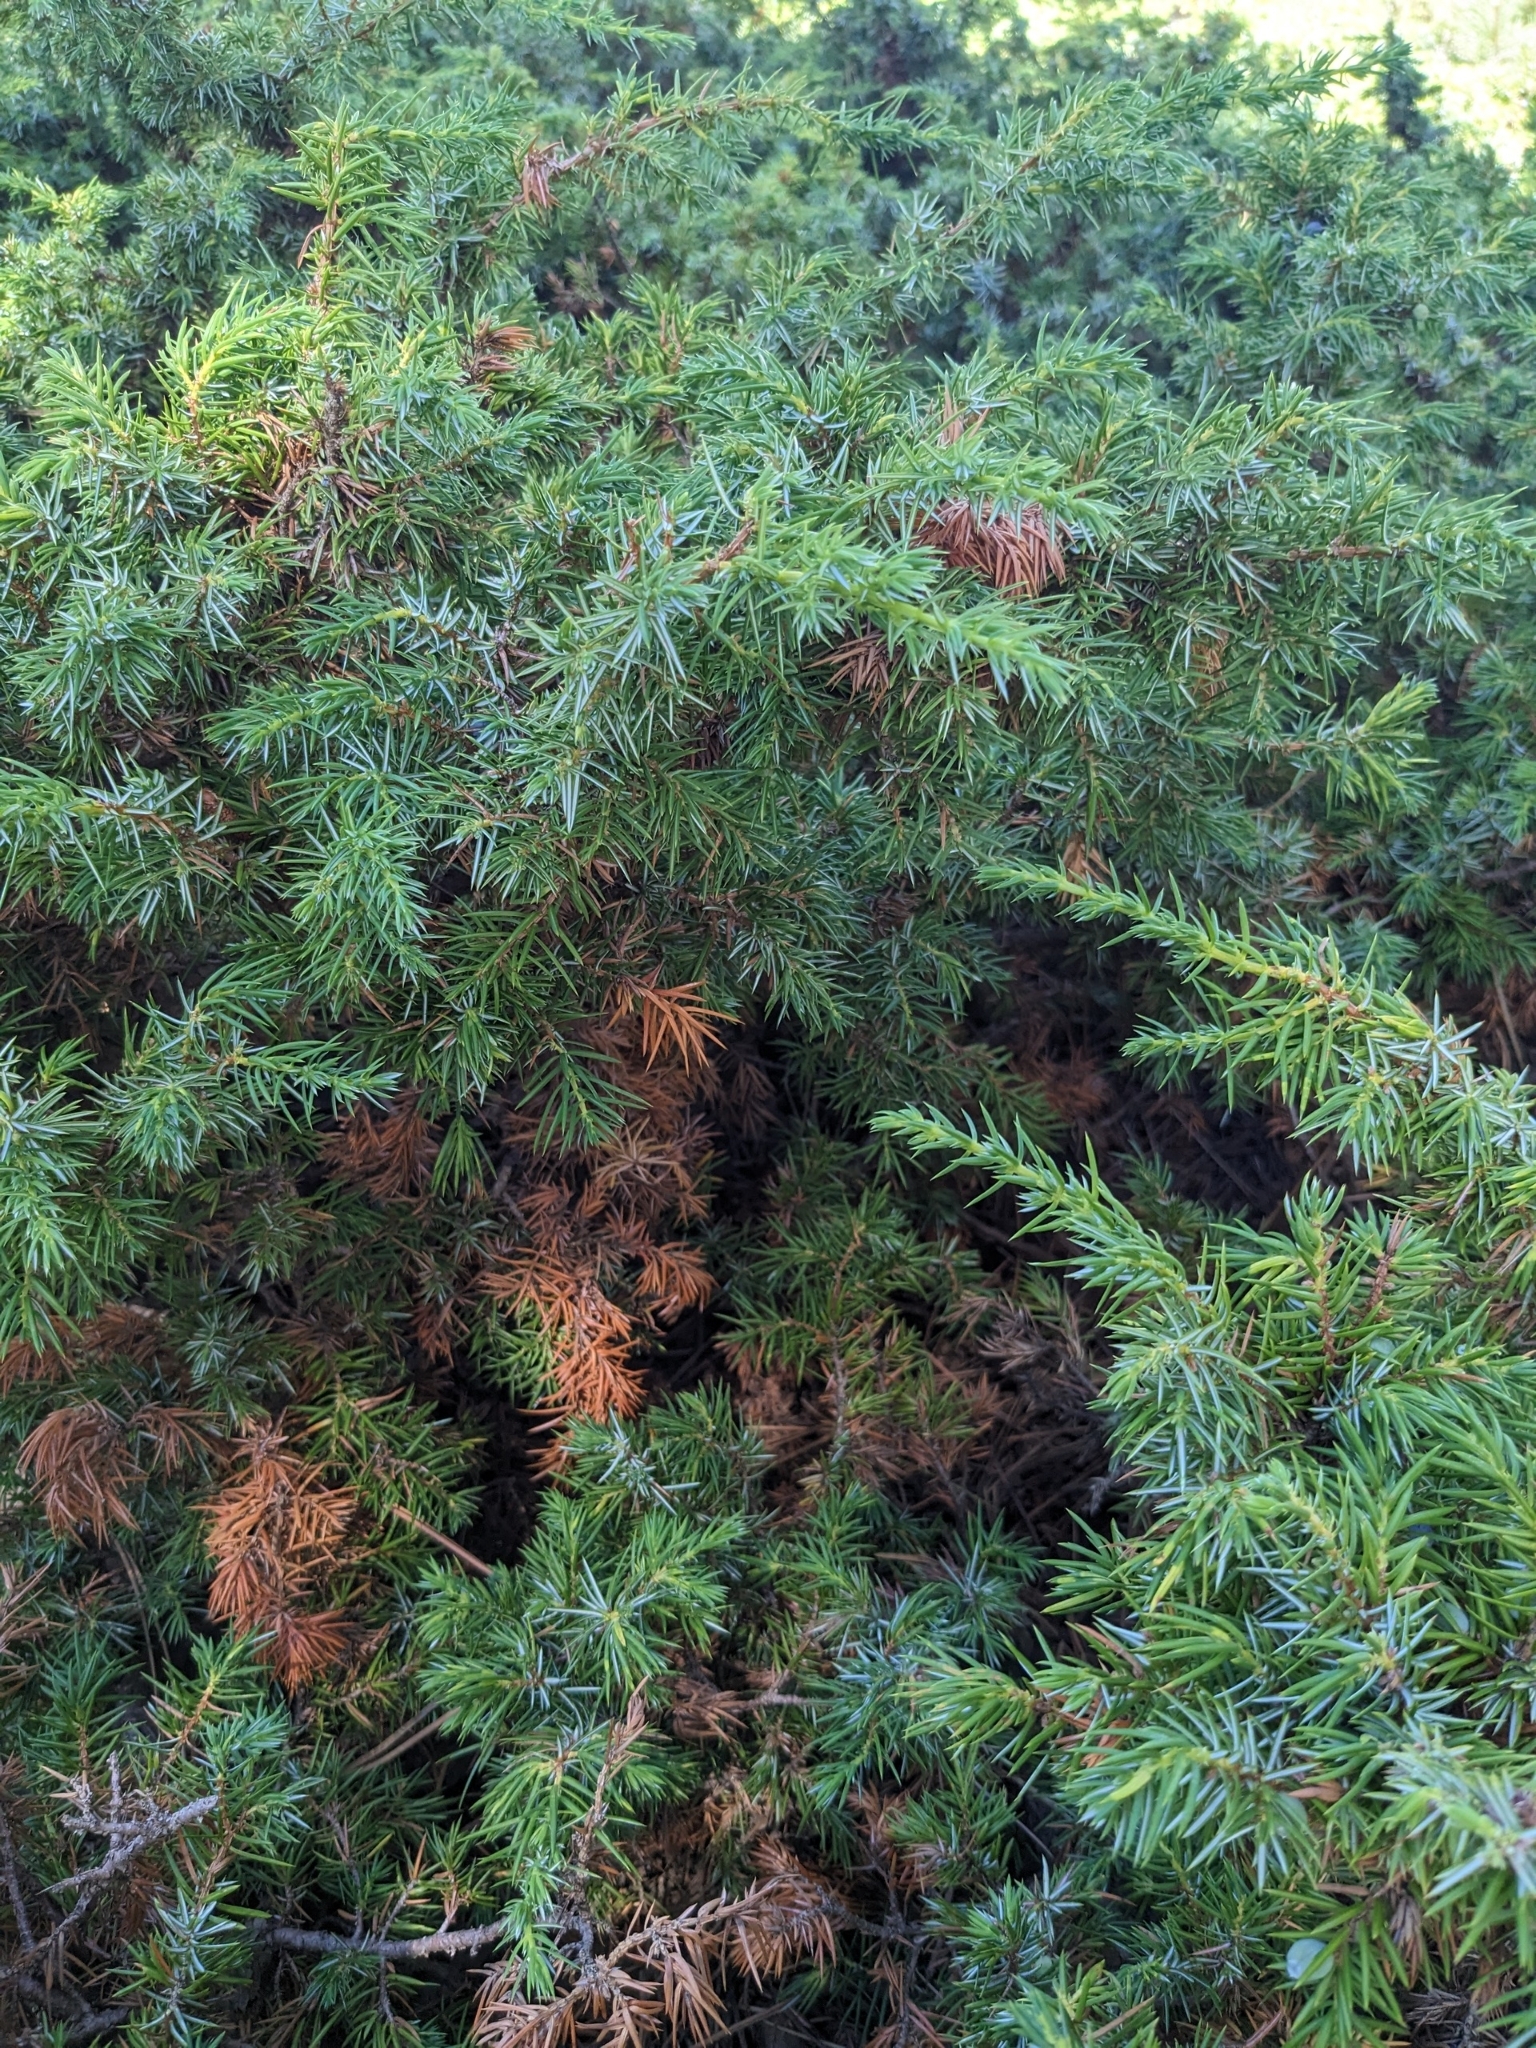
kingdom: Plantae
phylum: Tracheophyta
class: Pinopsida
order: Pinales
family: Cupressaceae
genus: Juniperus
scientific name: Juniperus communis
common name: Common juniper
